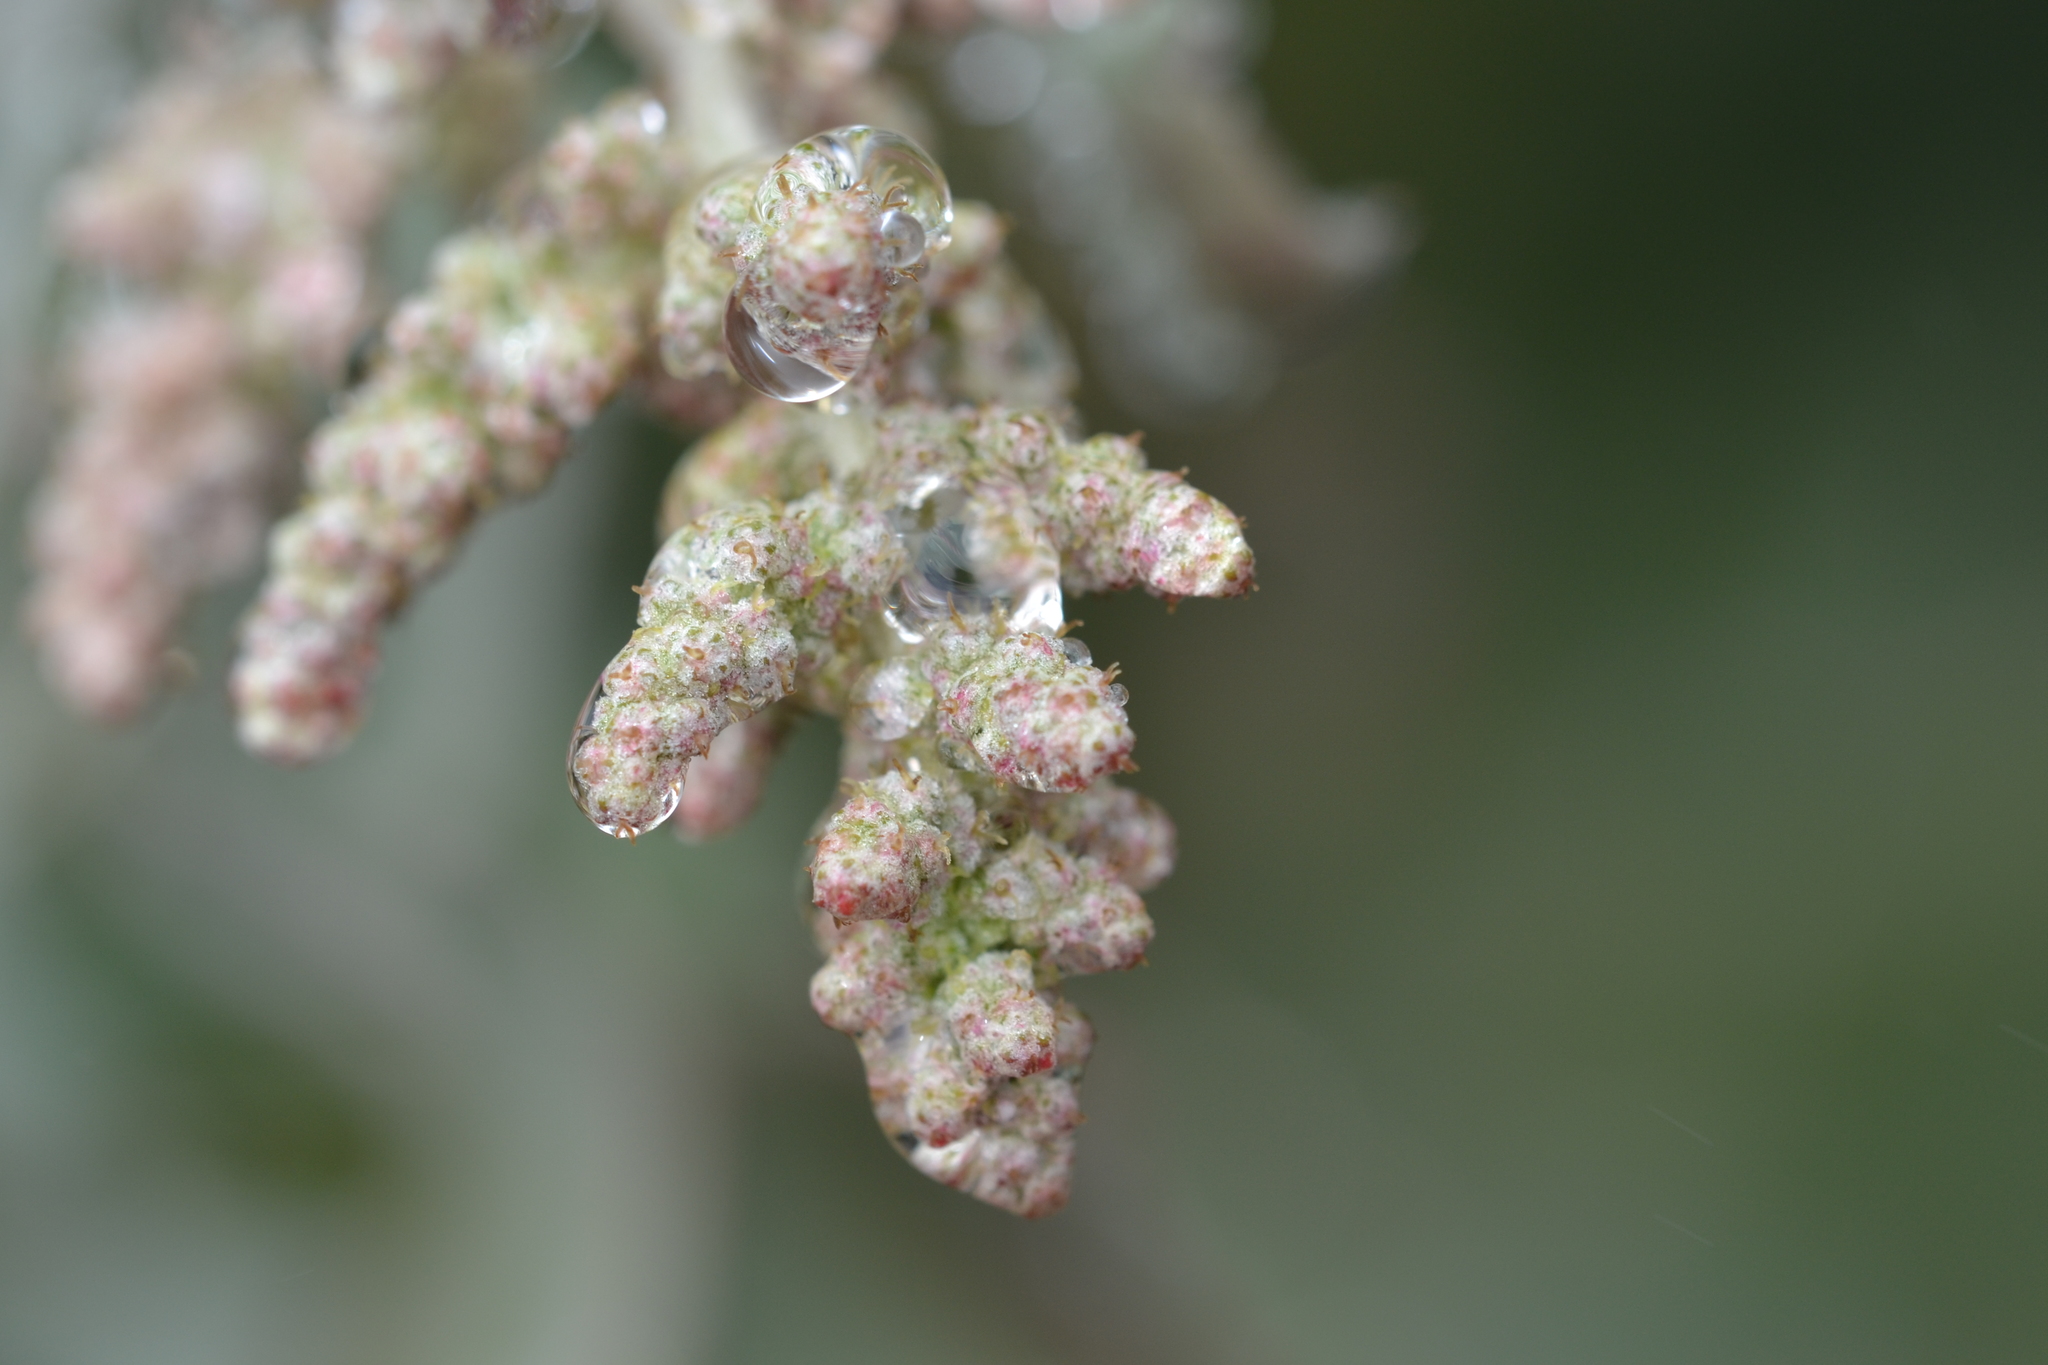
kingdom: Plantae
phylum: Tracheophyta
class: Magnoliopsida
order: Caryophyllales
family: Amaranthaceae
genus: Chenopodium
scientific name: Chenopodium oahuense
